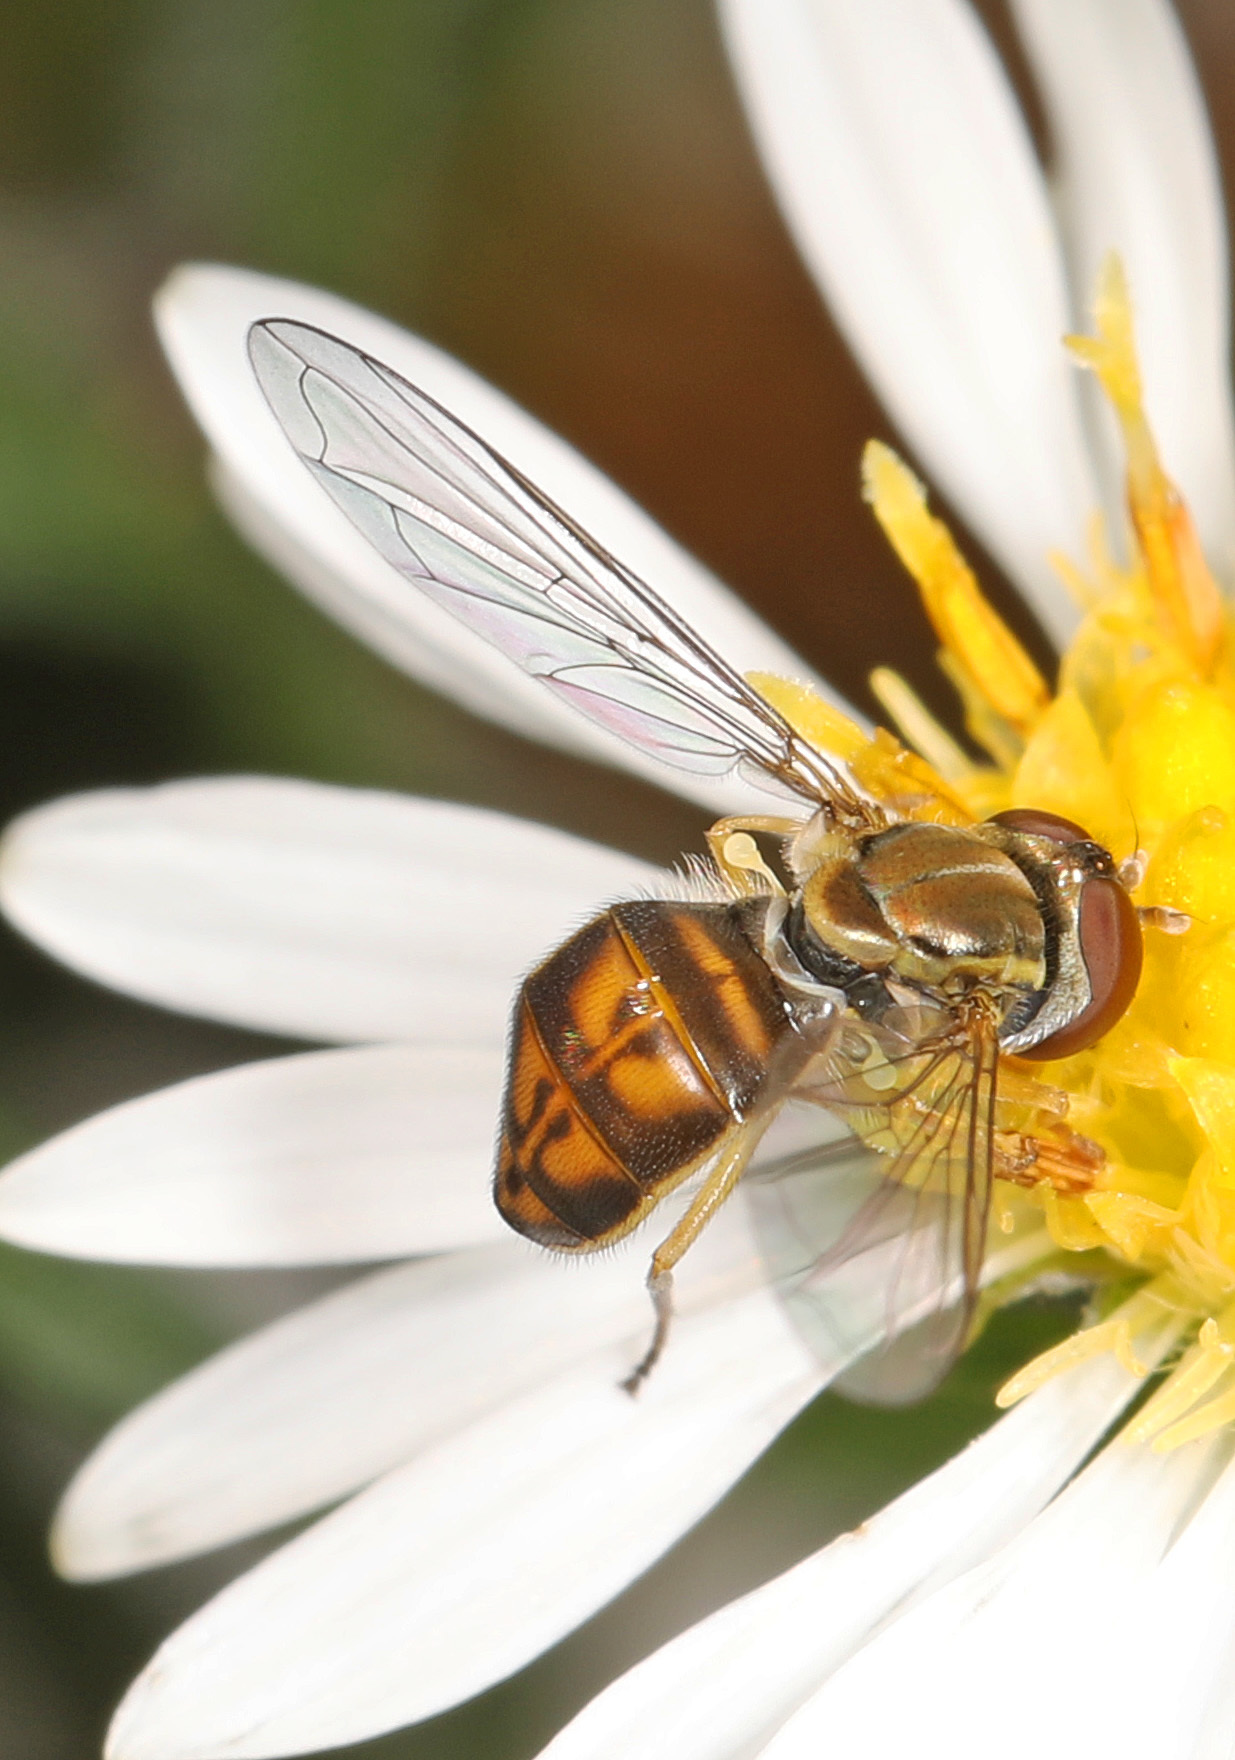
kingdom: Animalia
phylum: Arthropoda
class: Insecta
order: Diptera
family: Syrphidae
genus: Toxomerus
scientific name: Toxomerus marginatus
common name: Syrphid fly
